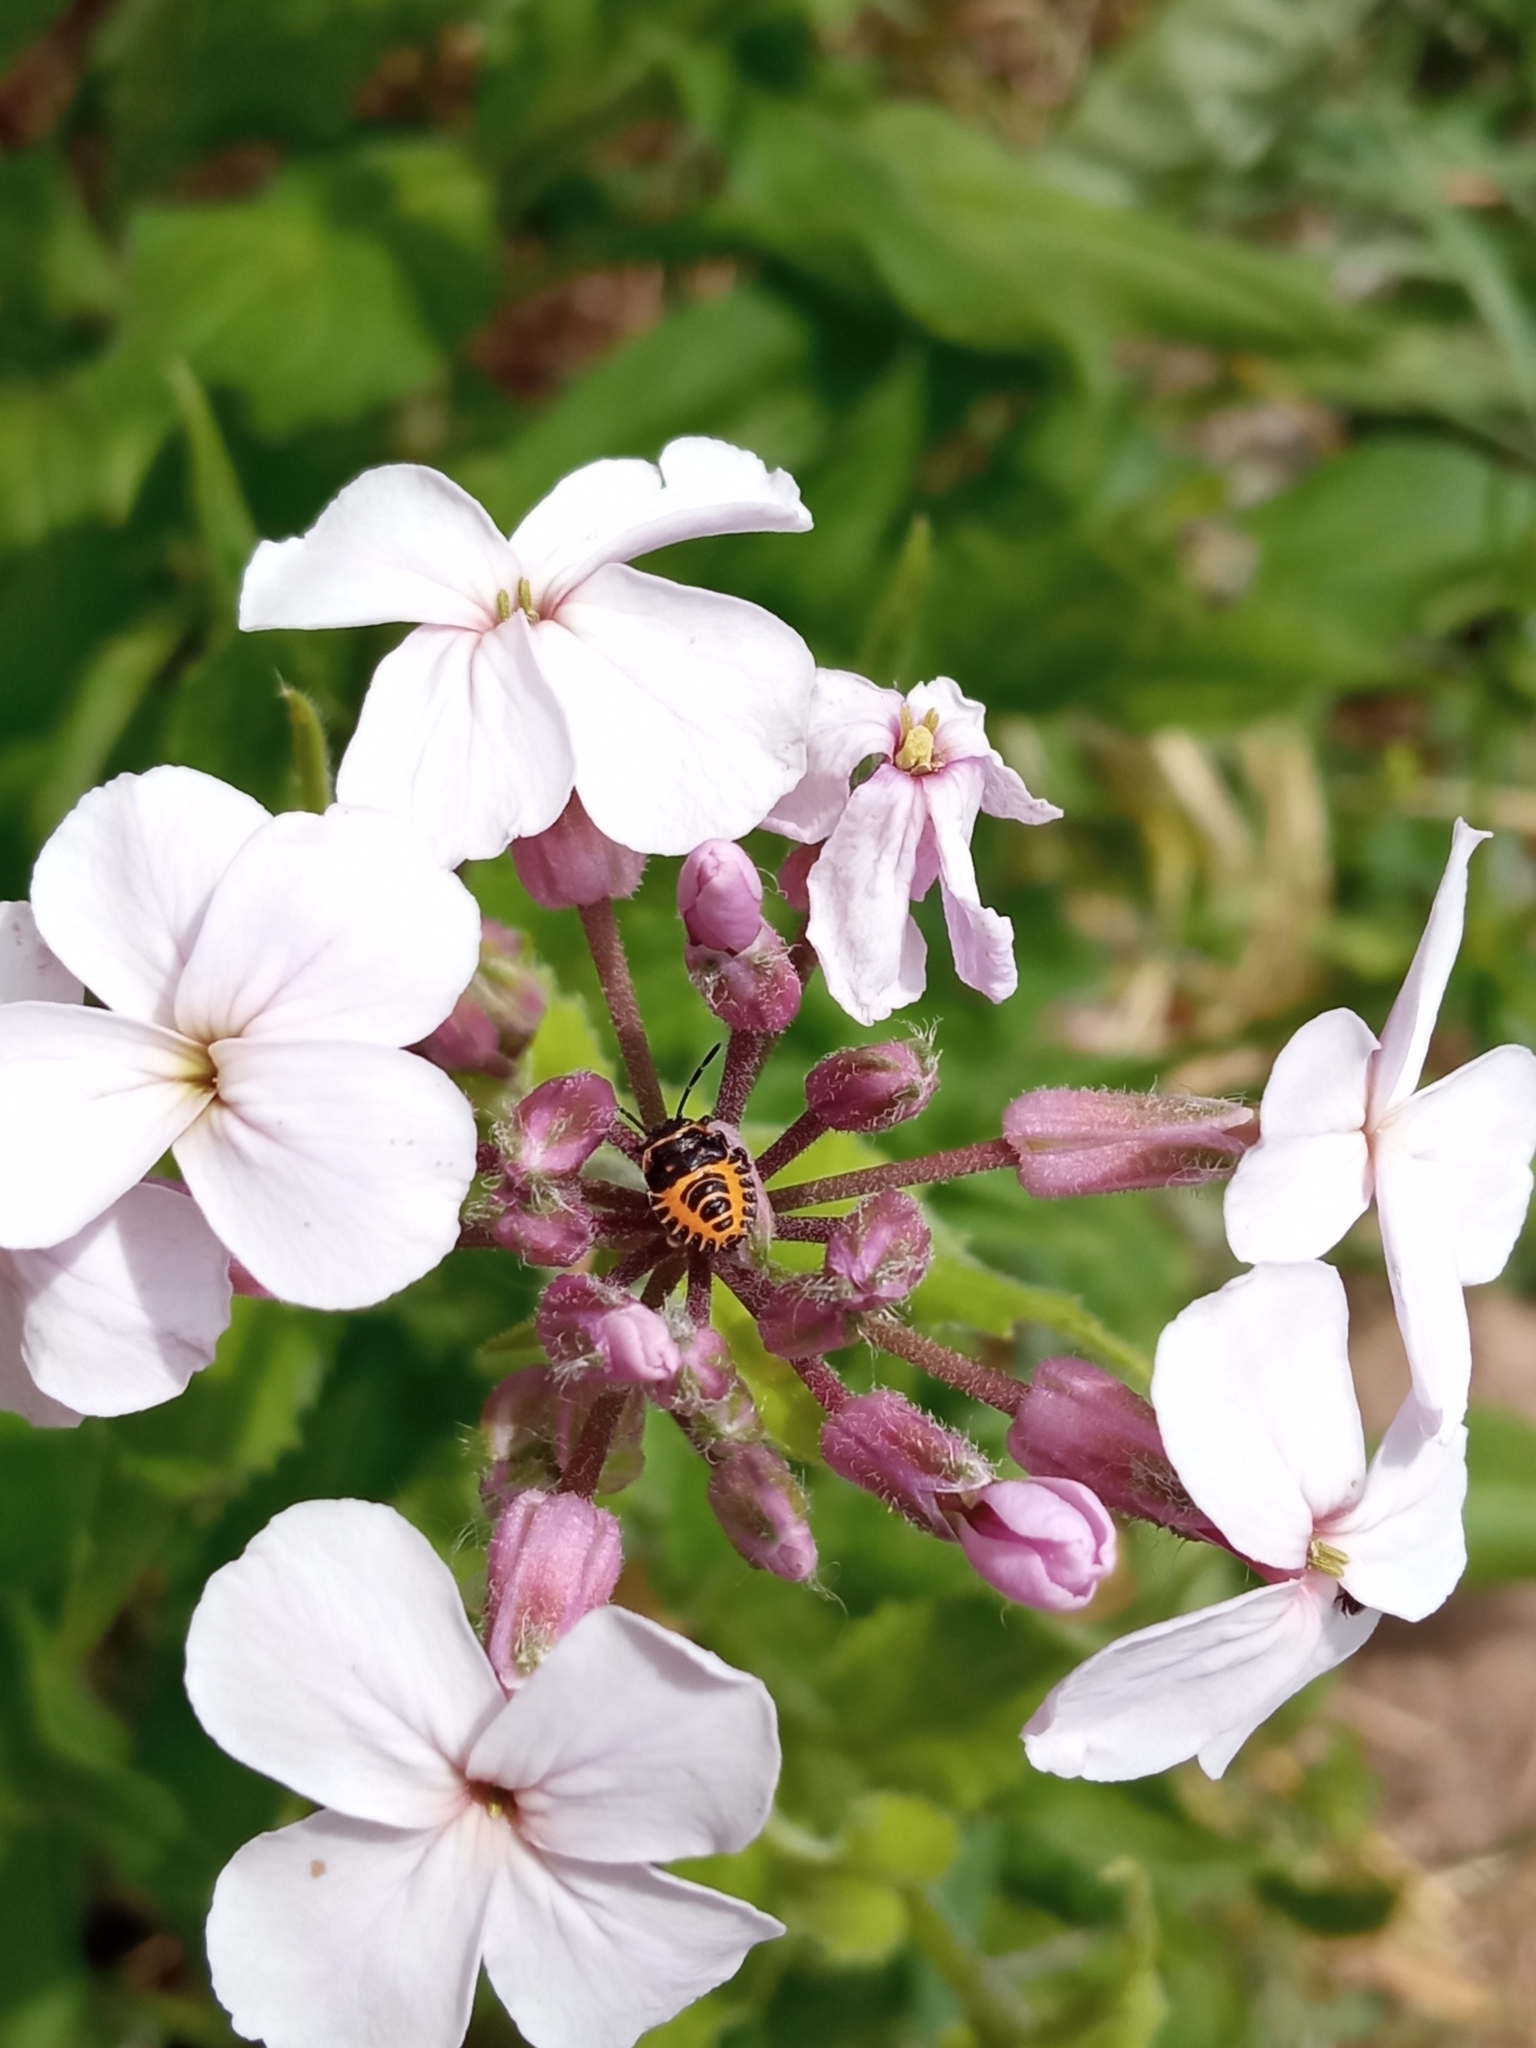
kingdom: Animalia
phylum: Arthropoda
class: Insecta
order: Hemiptera
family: Pentatomidae
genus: Eurydema
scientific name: Eurydema ventralis
